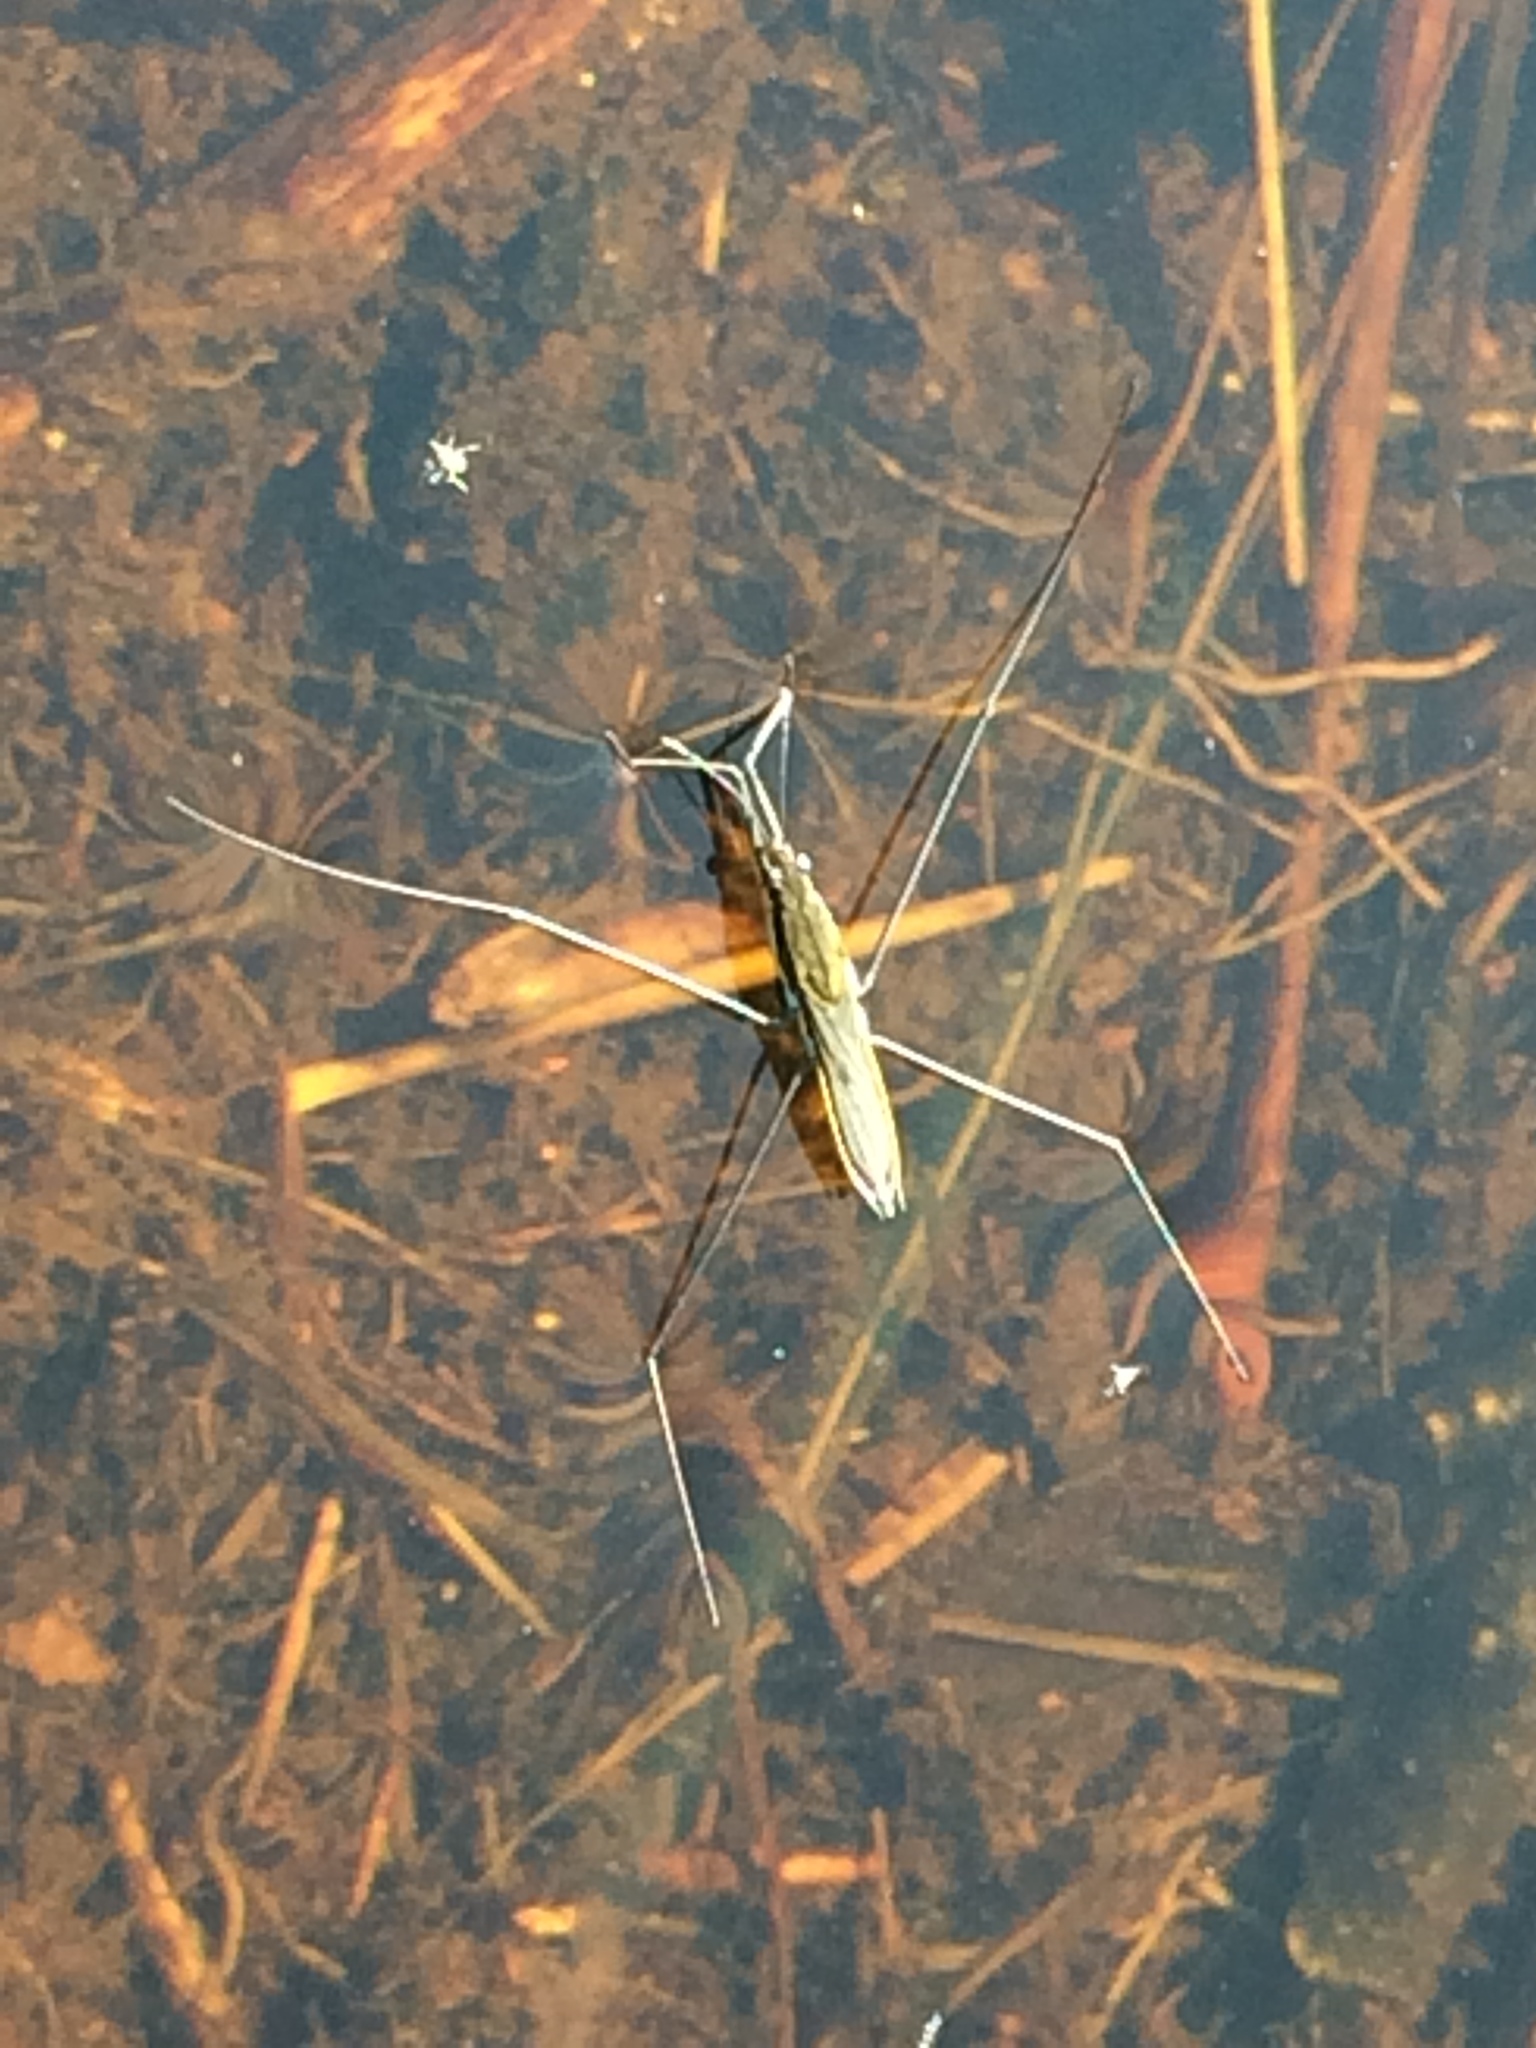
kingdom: Animalia
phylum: Arthropoda
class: Insecta
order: Hemiptera
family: Gerridae
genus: Aquarius
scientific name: Aquarius paludum
